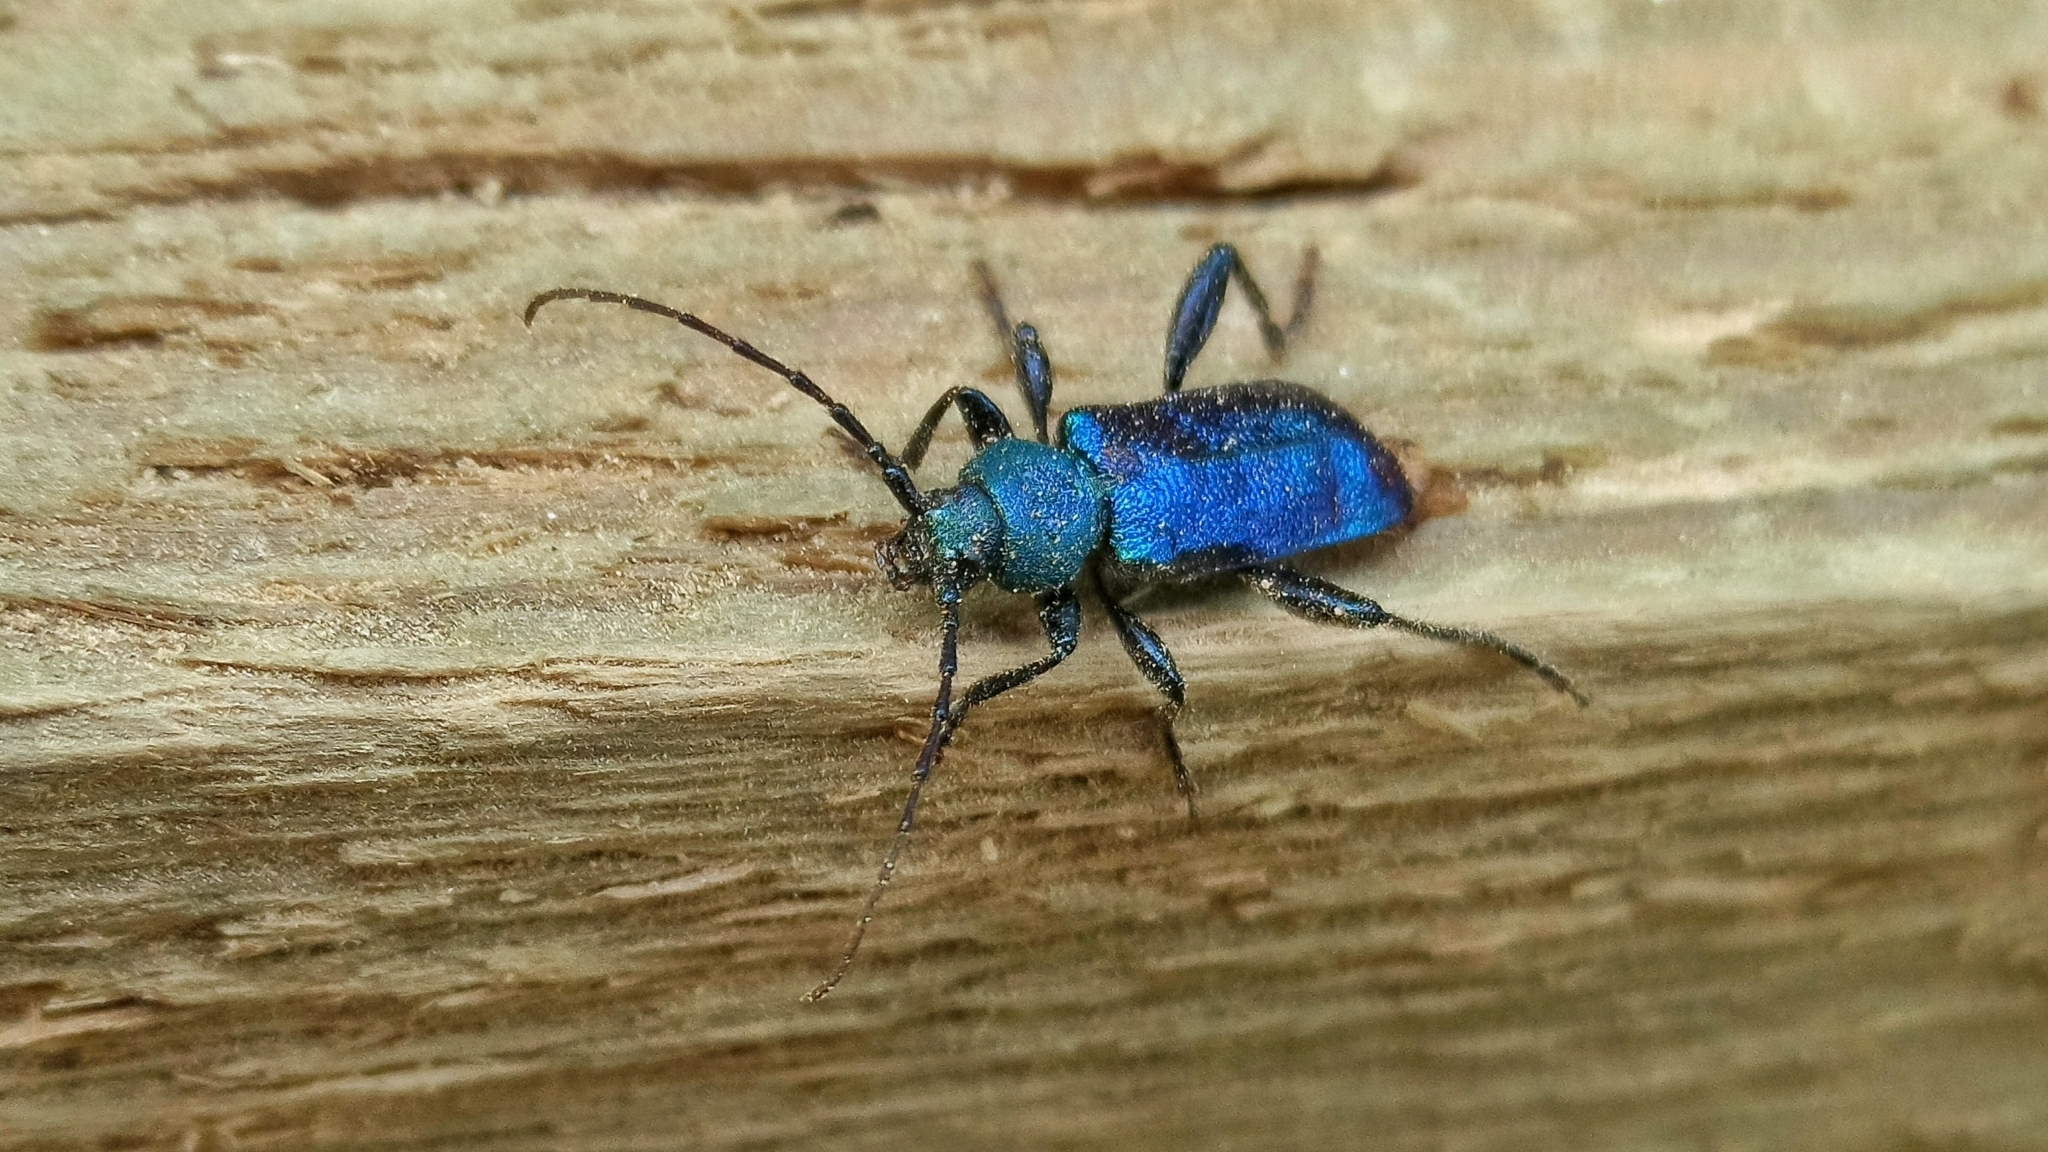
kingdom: Animalia
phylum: Arthropoda
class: Insecta
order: Coleoptera
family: Cerambycidae
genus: Callidium
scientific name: Callidium violaceum
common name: Violet tanbark beetle
